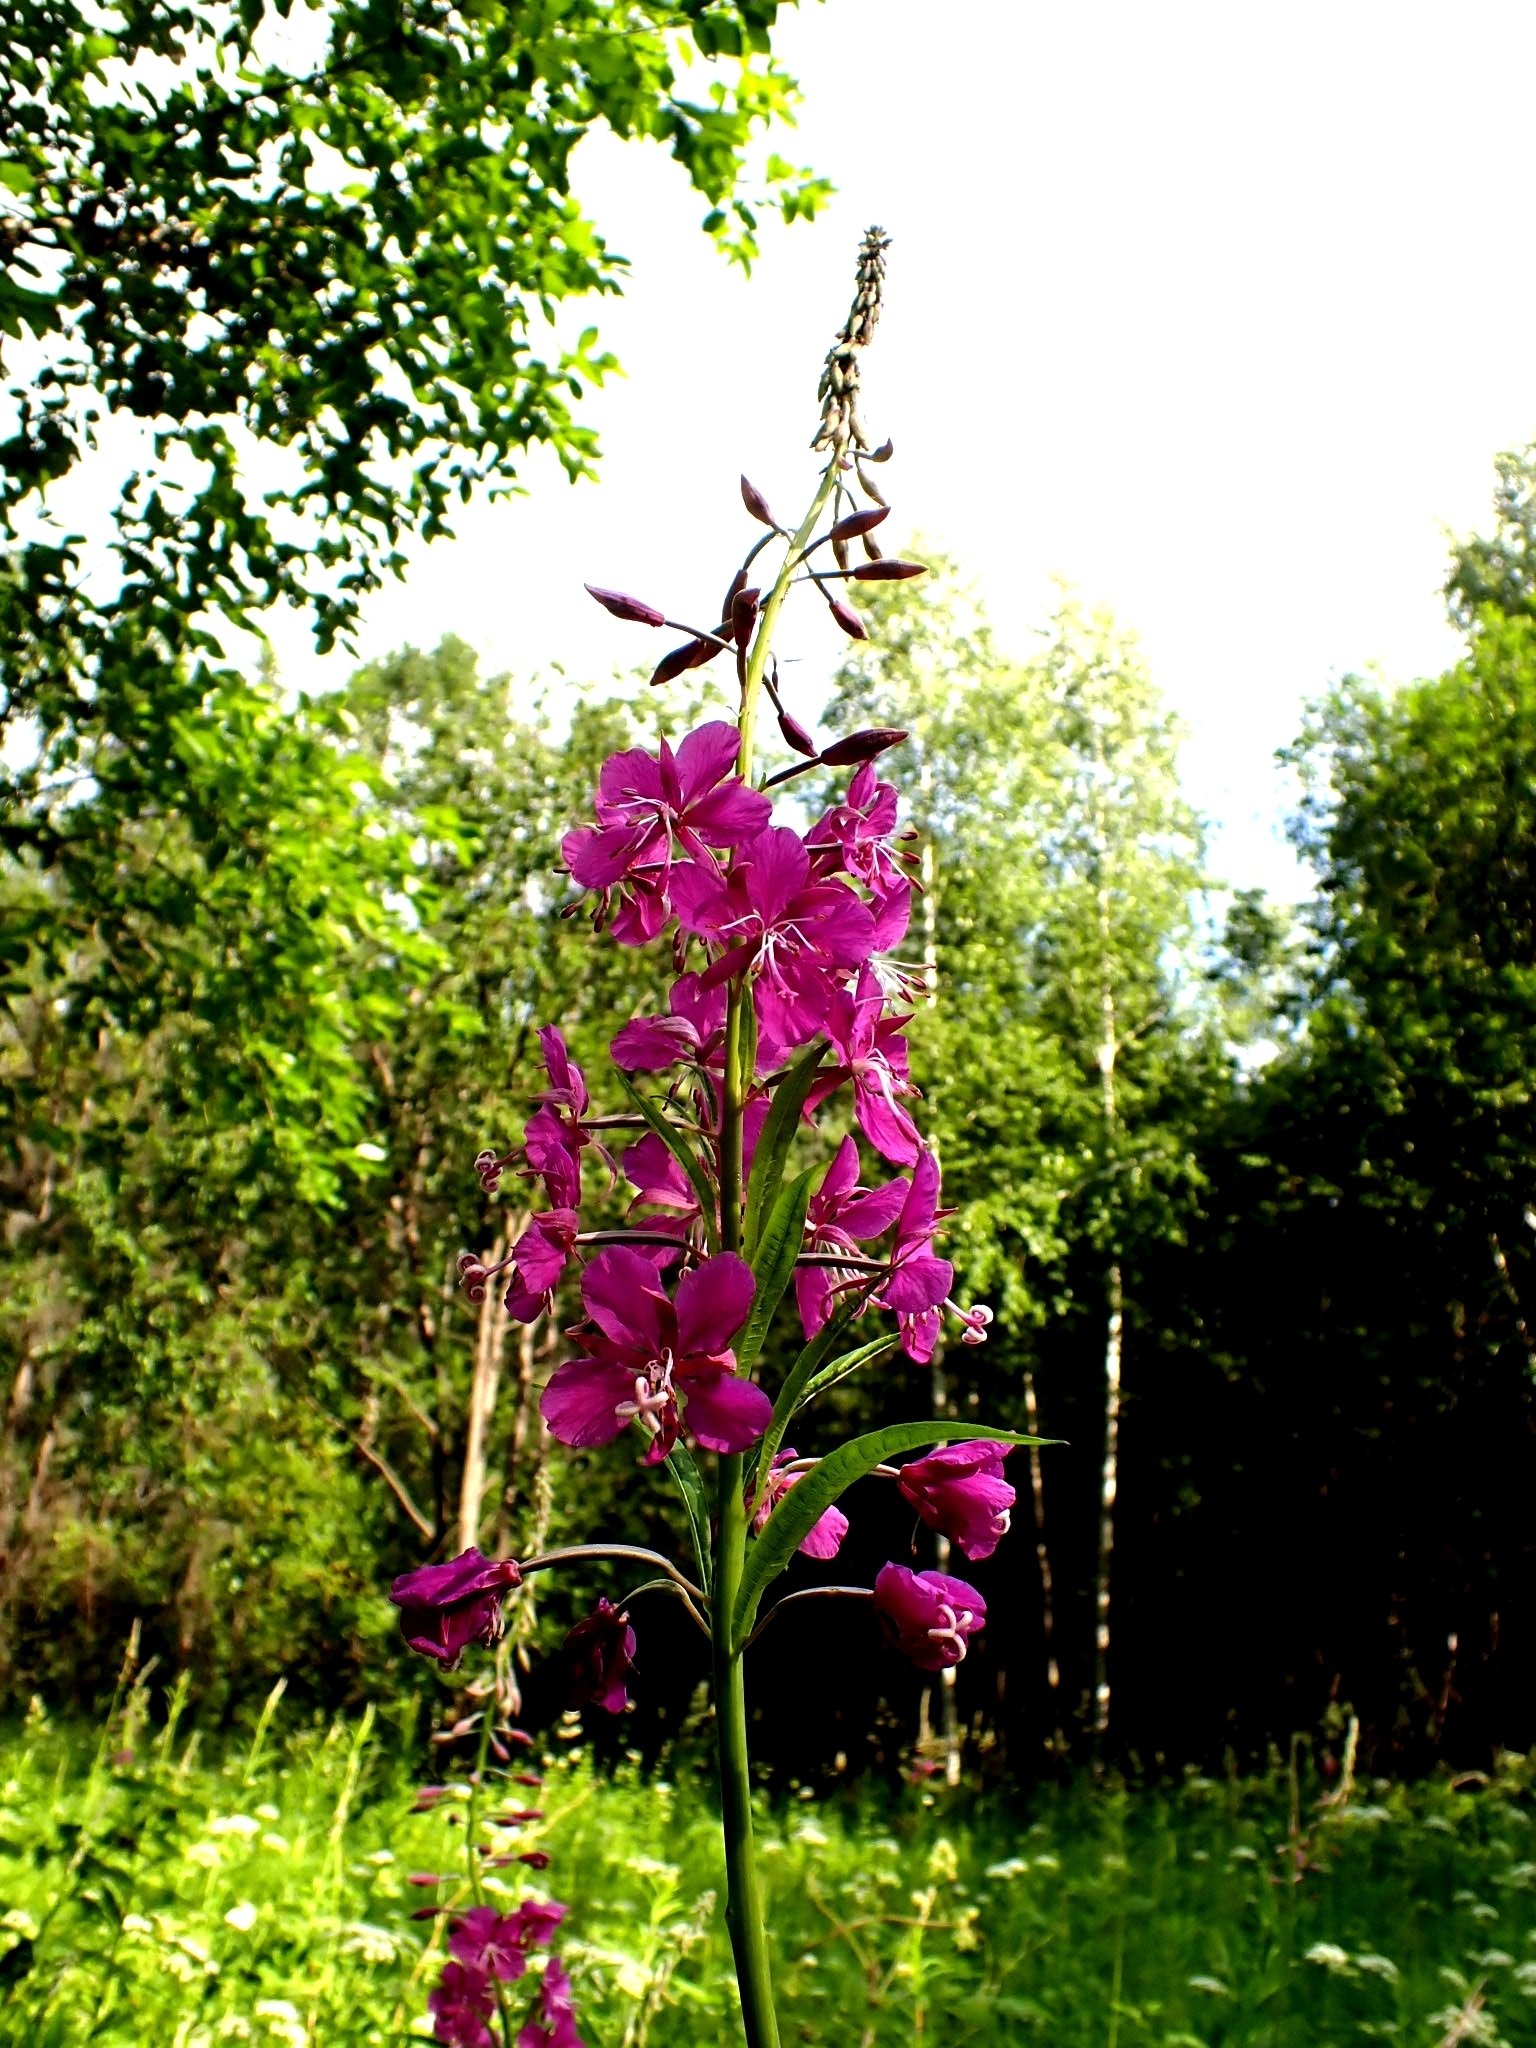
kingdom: Plantae
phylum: Tracheophyta
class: Magnoliopsida
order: Myrtales
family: Onagraceae
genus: Chamaenerion
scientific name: Chamaenerion angustifolium
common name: Fireweed
